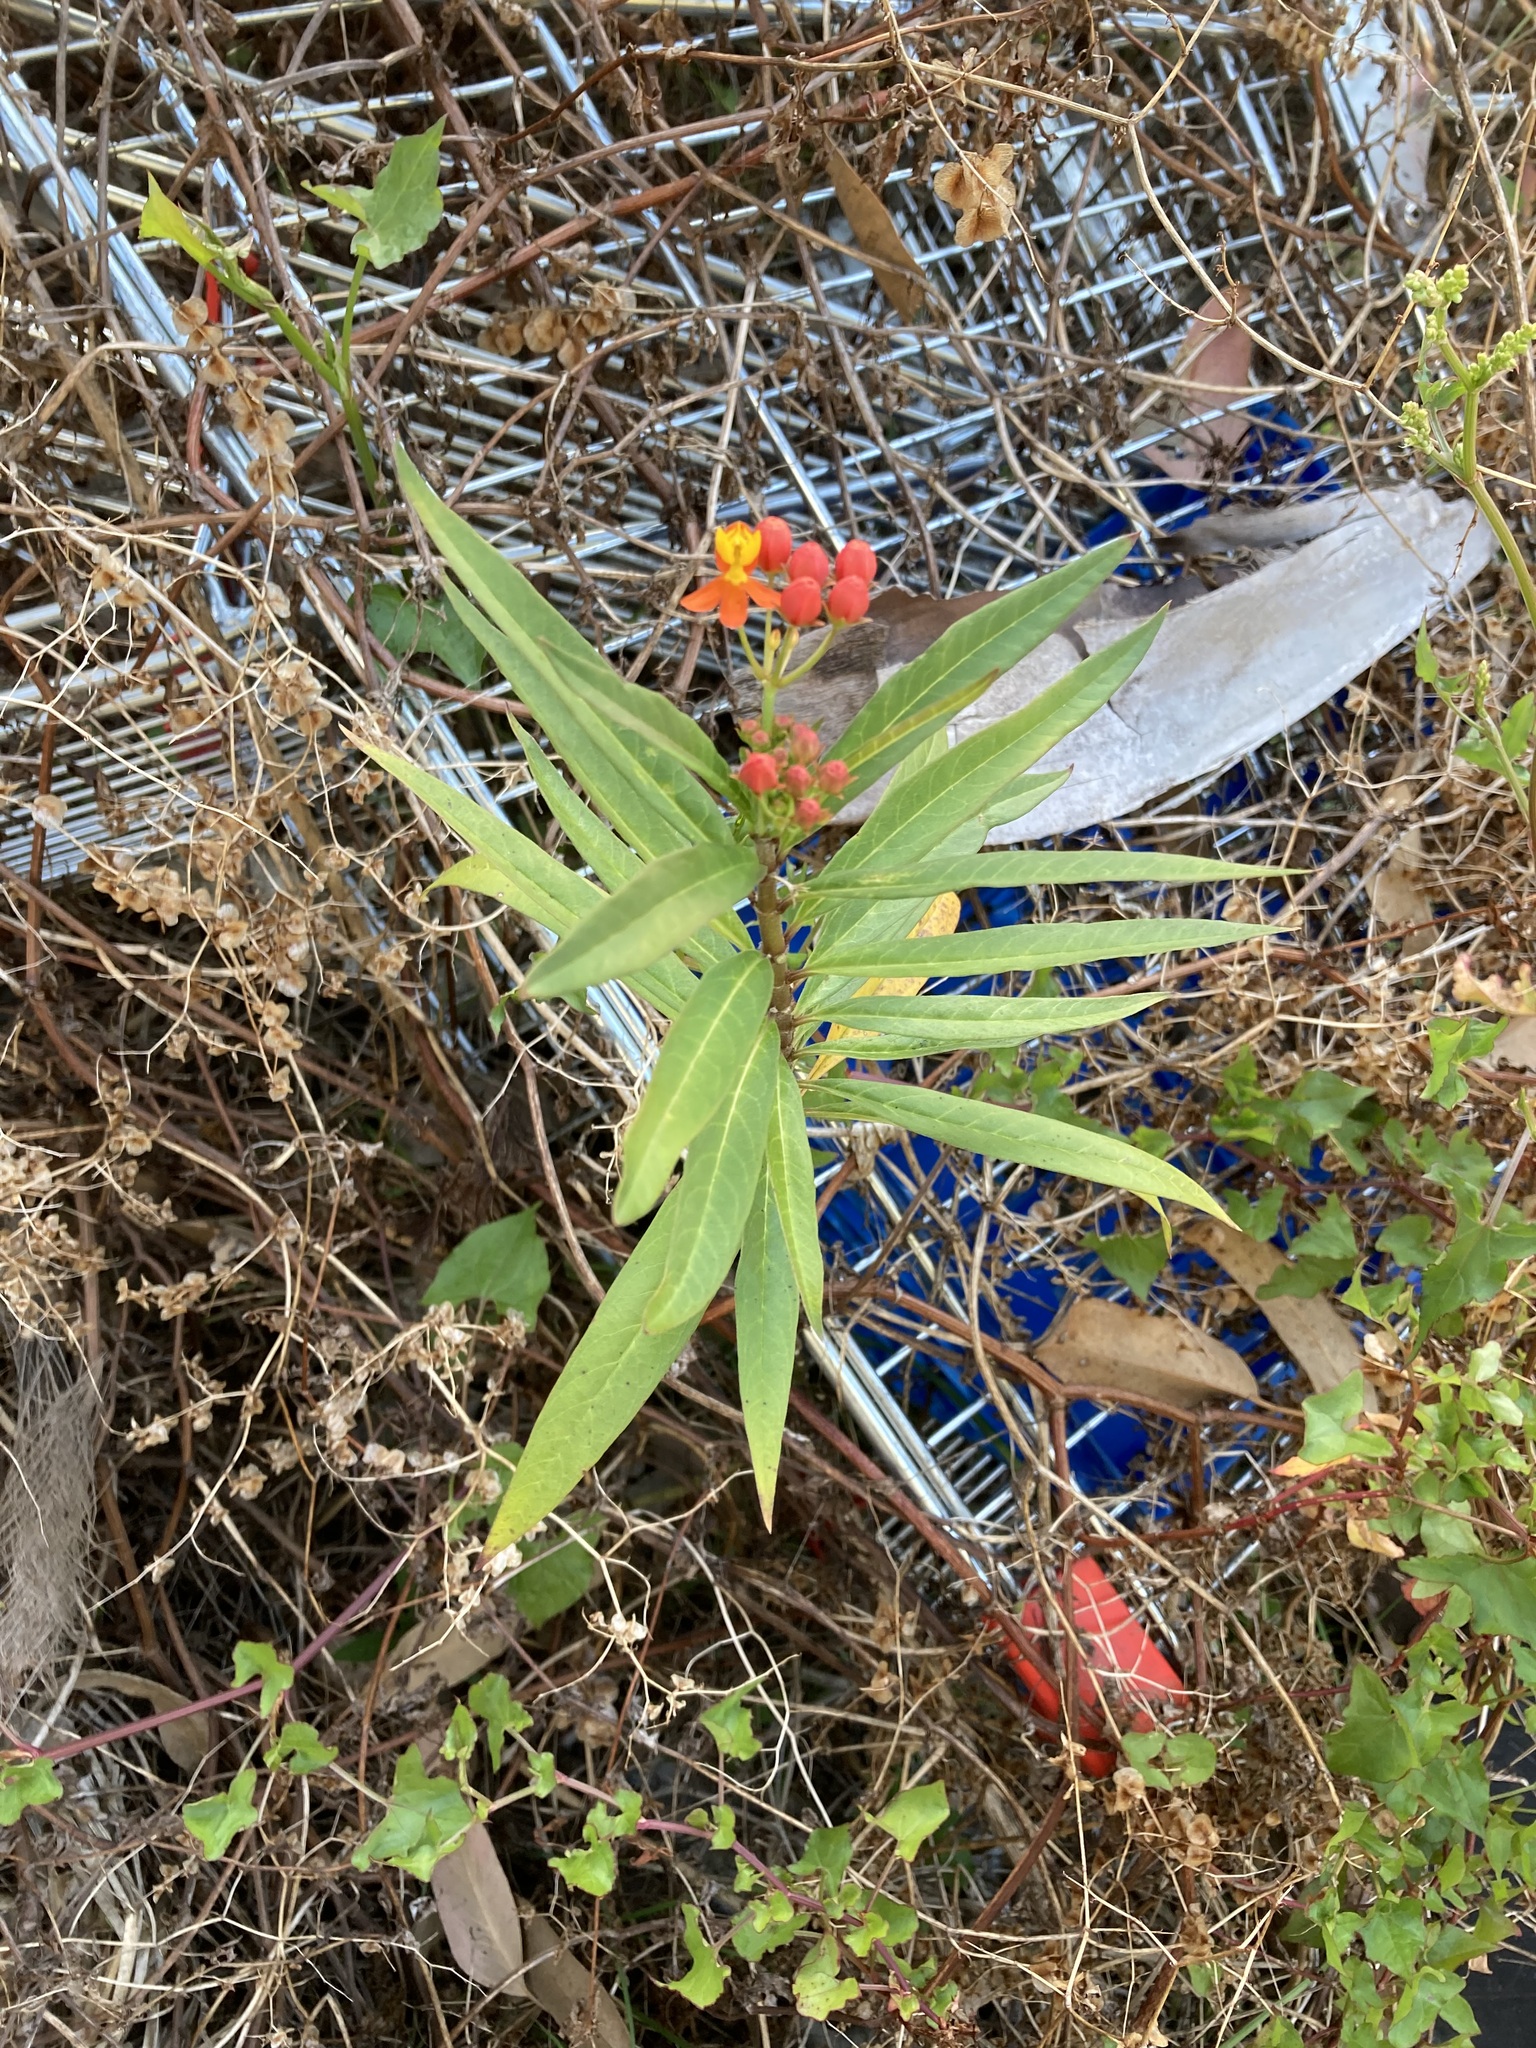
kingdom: Plantae
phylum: Tracheophyta
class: Magnoliopsida
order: Gentianales
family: Apocynaceae
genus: Asclepias
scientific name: Asclepias curassavica
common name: Bloodflower
